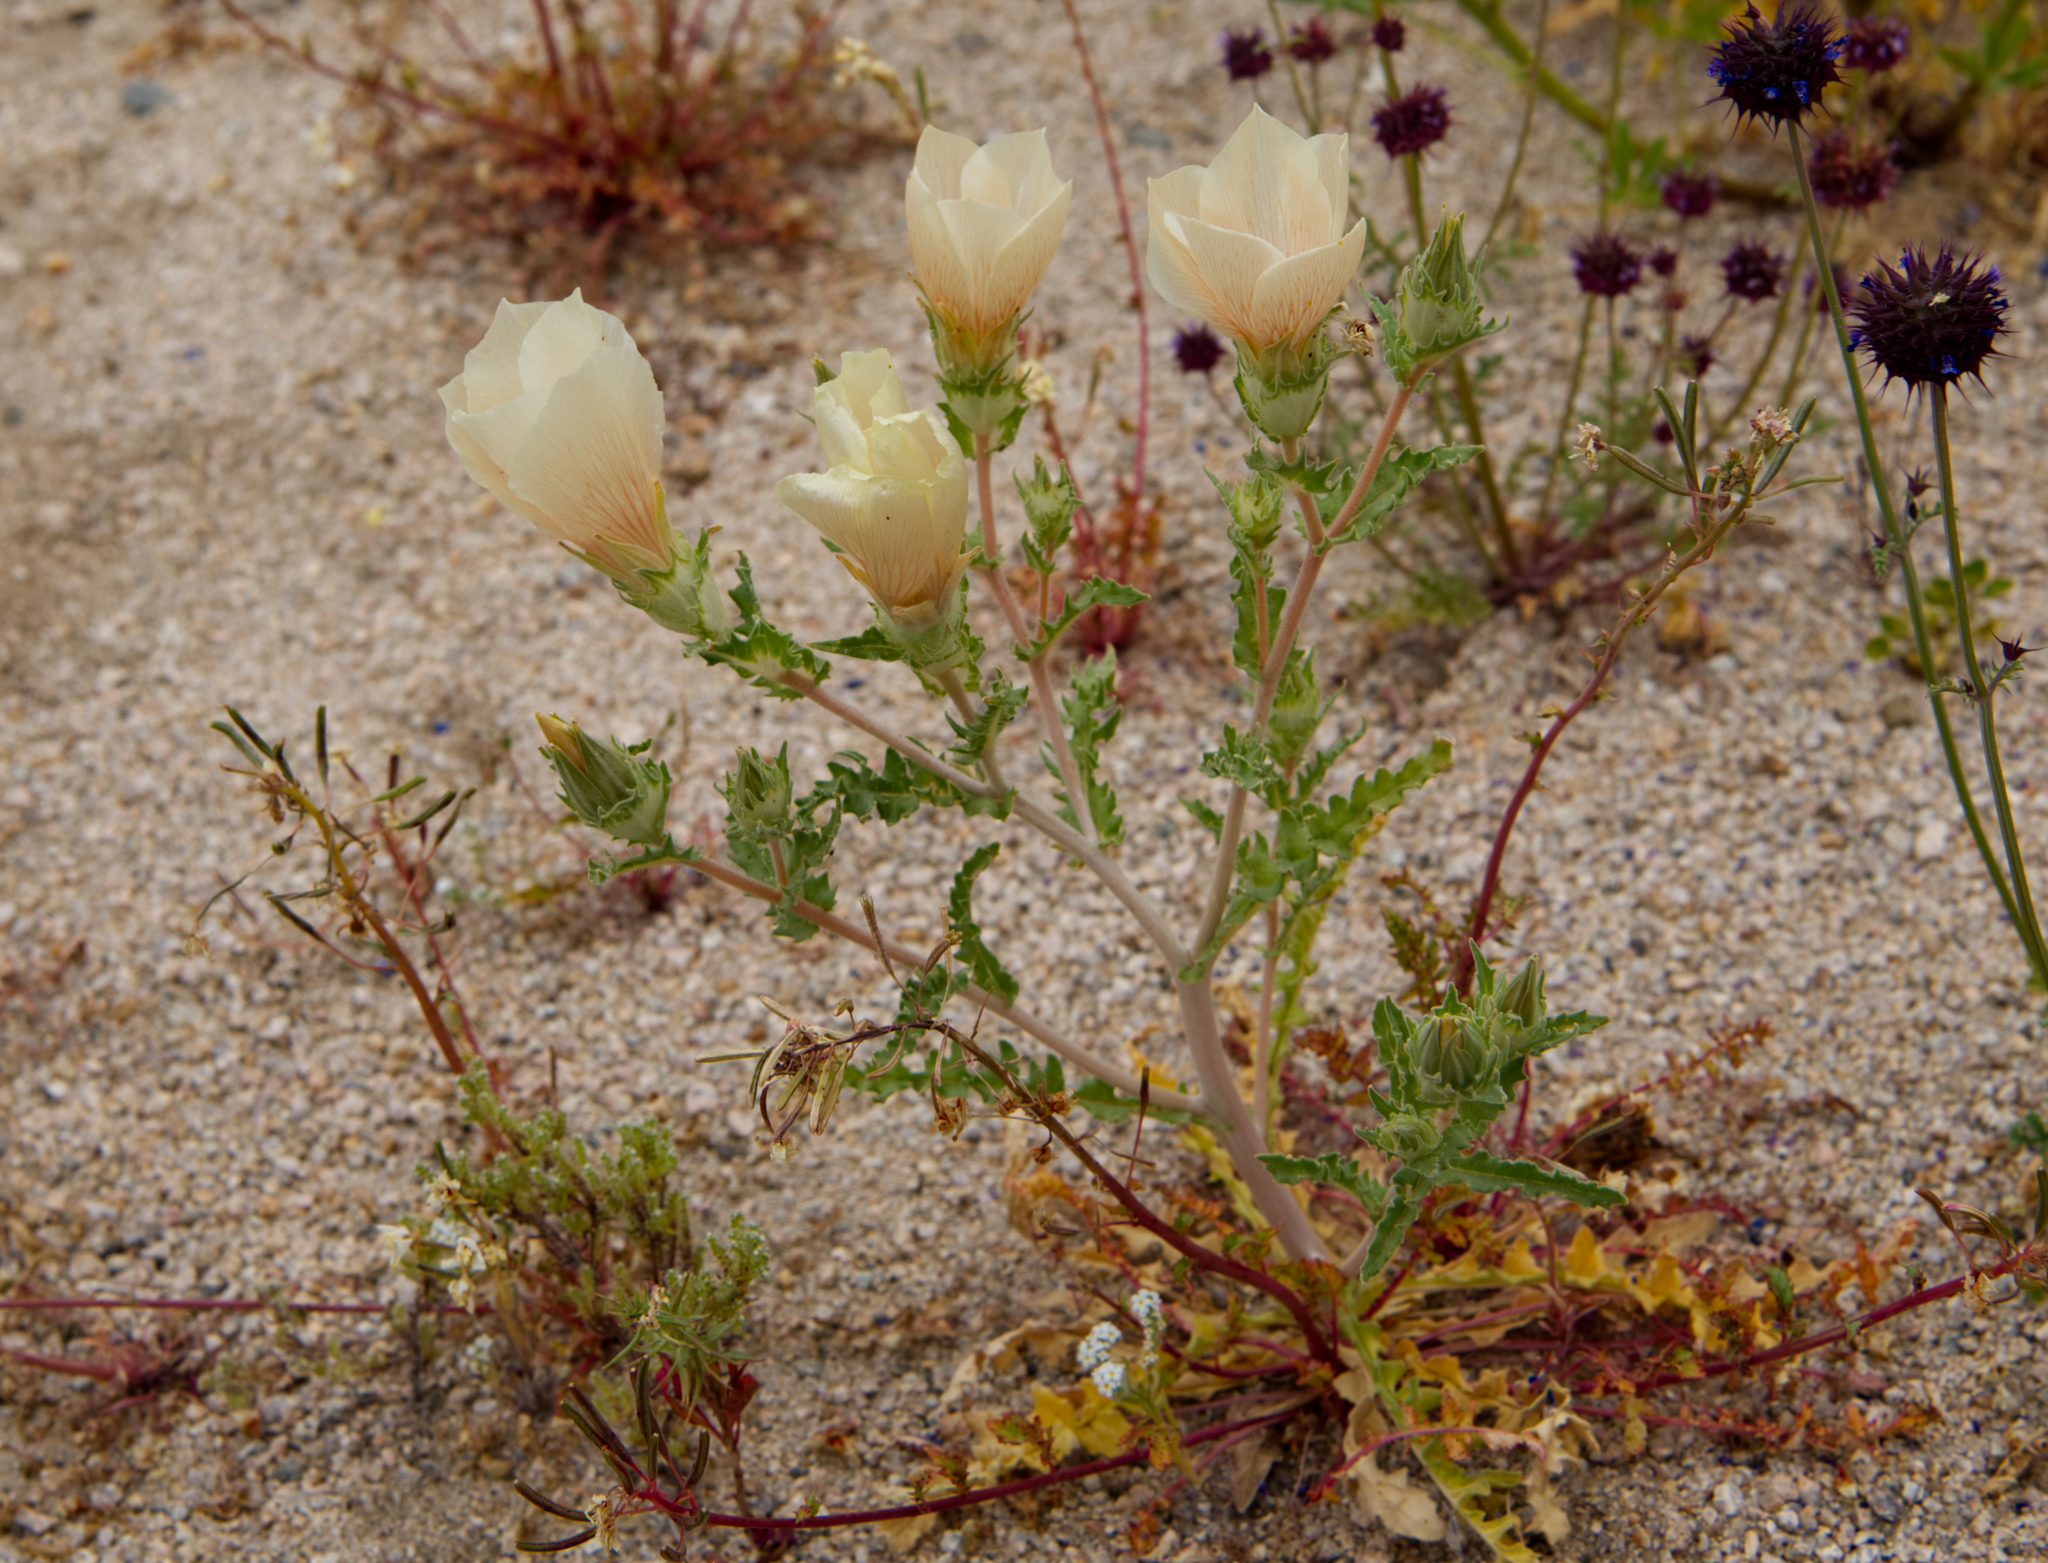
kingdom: Plantae
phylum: Tracheophyta
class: Magnoliopsida
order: Cornales
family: Loasaceae
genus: Mentzelia
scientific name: Mentzelia involucrata
